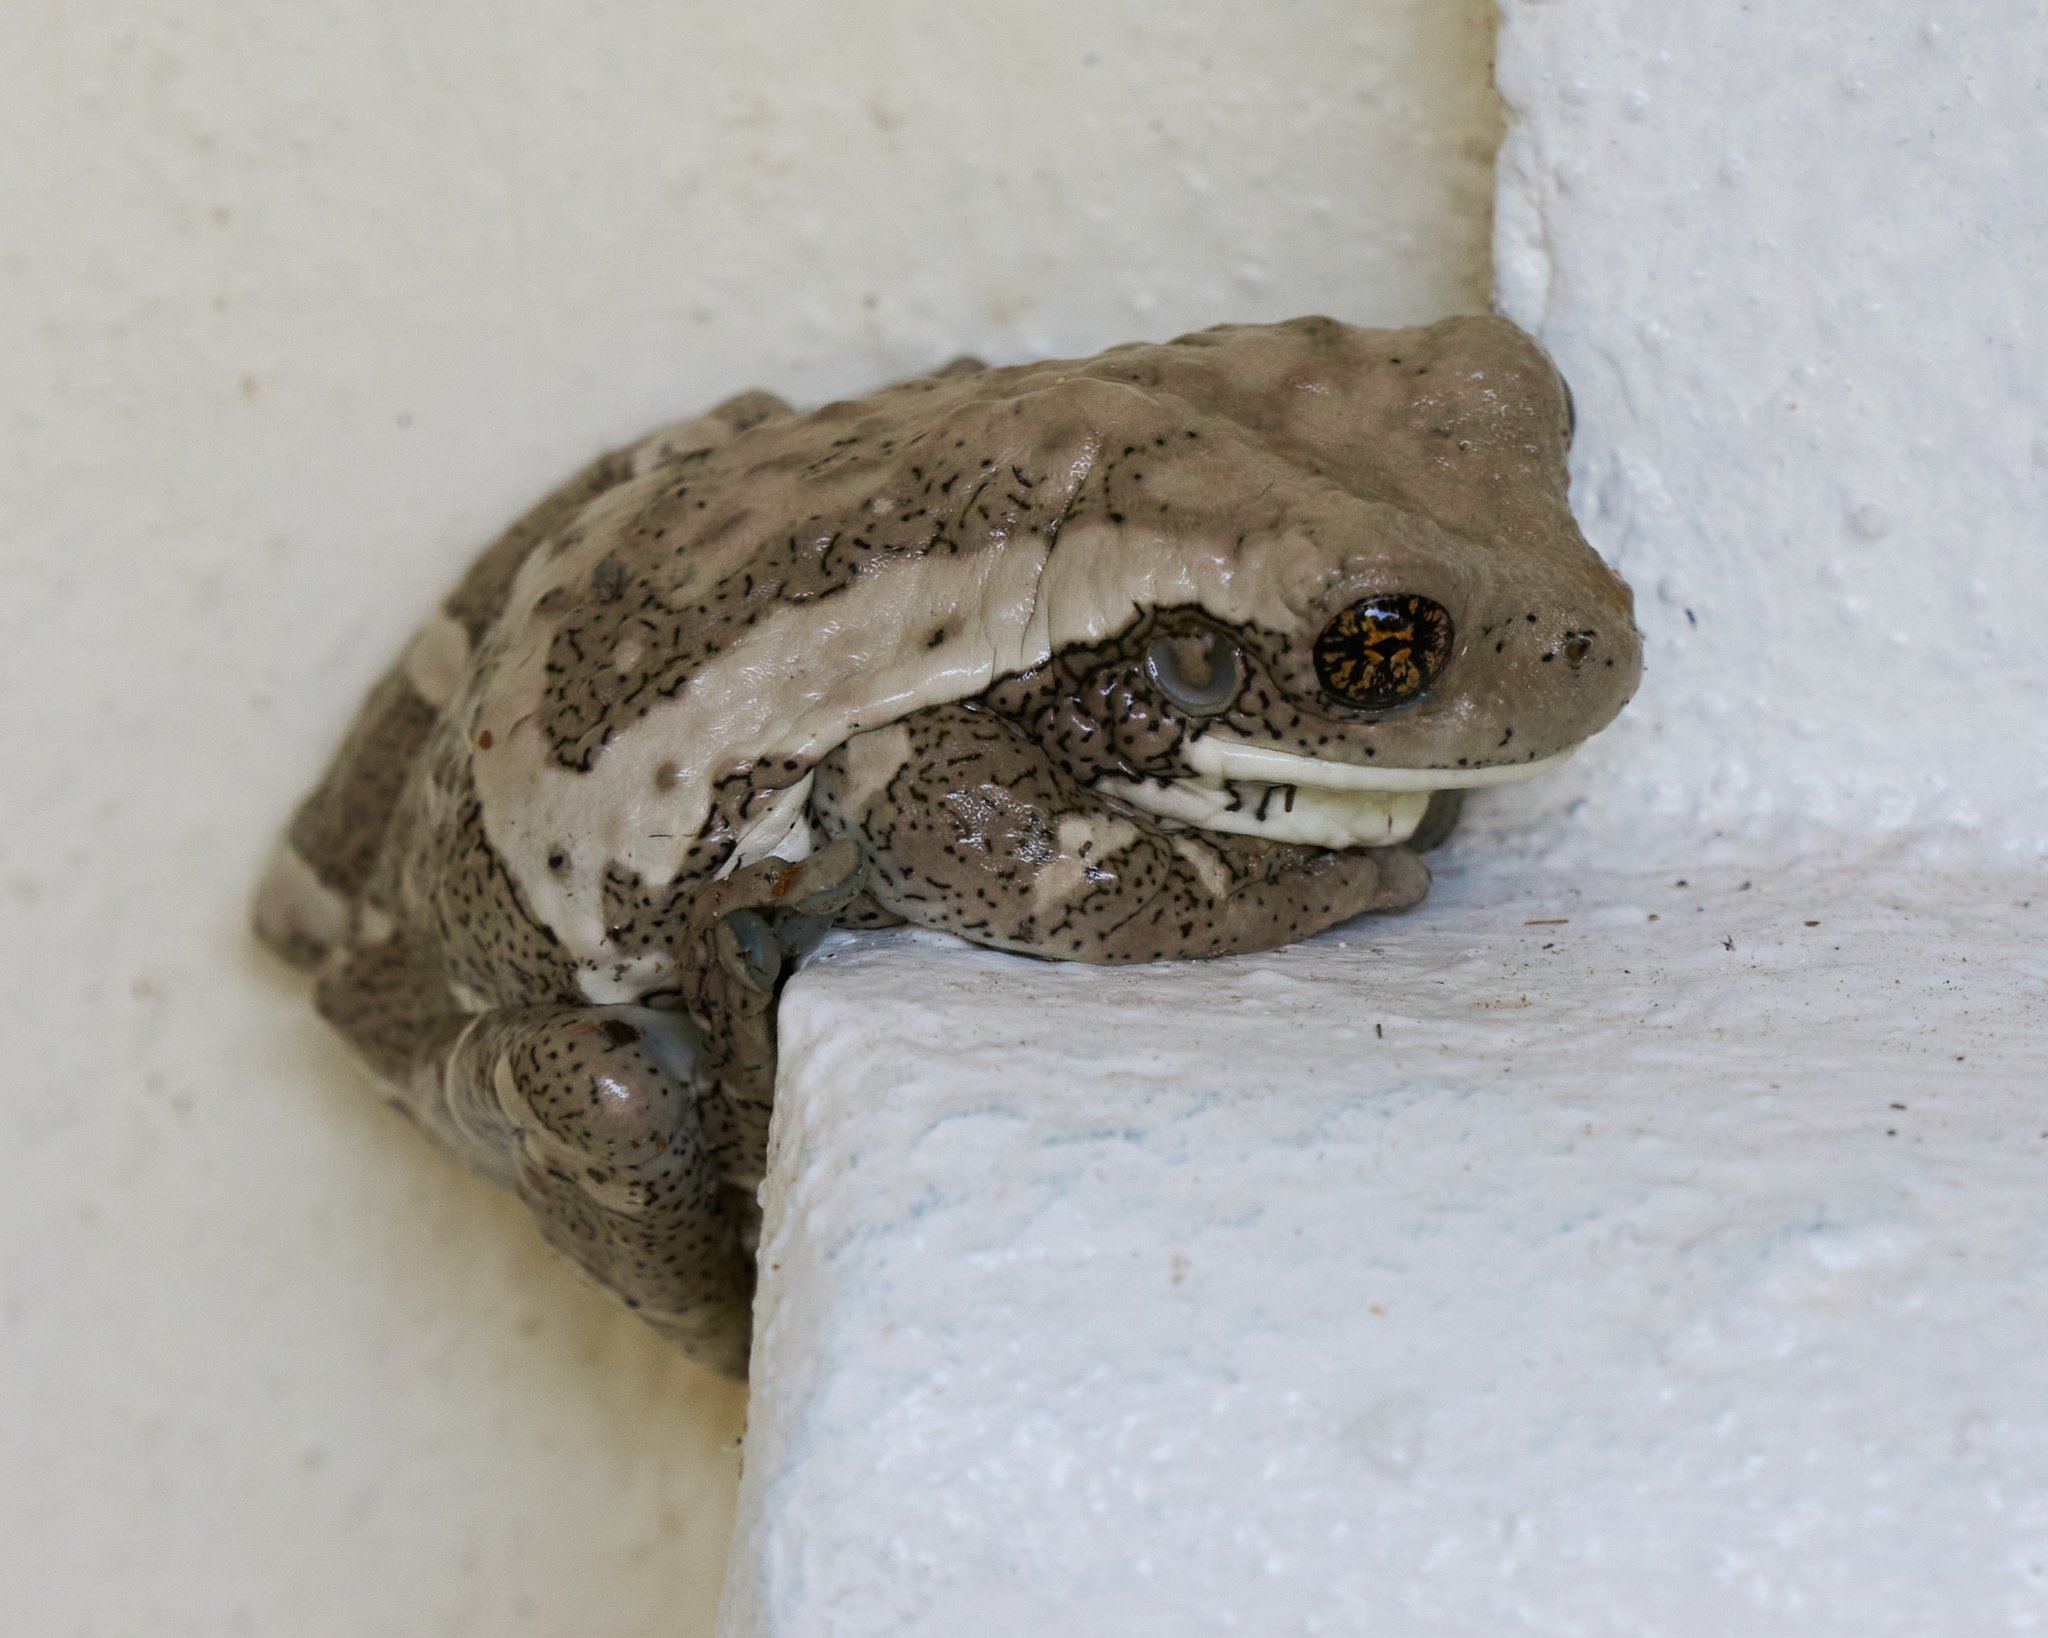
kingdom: Animalia
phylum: Chordata
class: Amphibia
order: Anura
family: Hylidae
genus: Trachycephalus
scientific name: Trachycephalus vermiculatus
